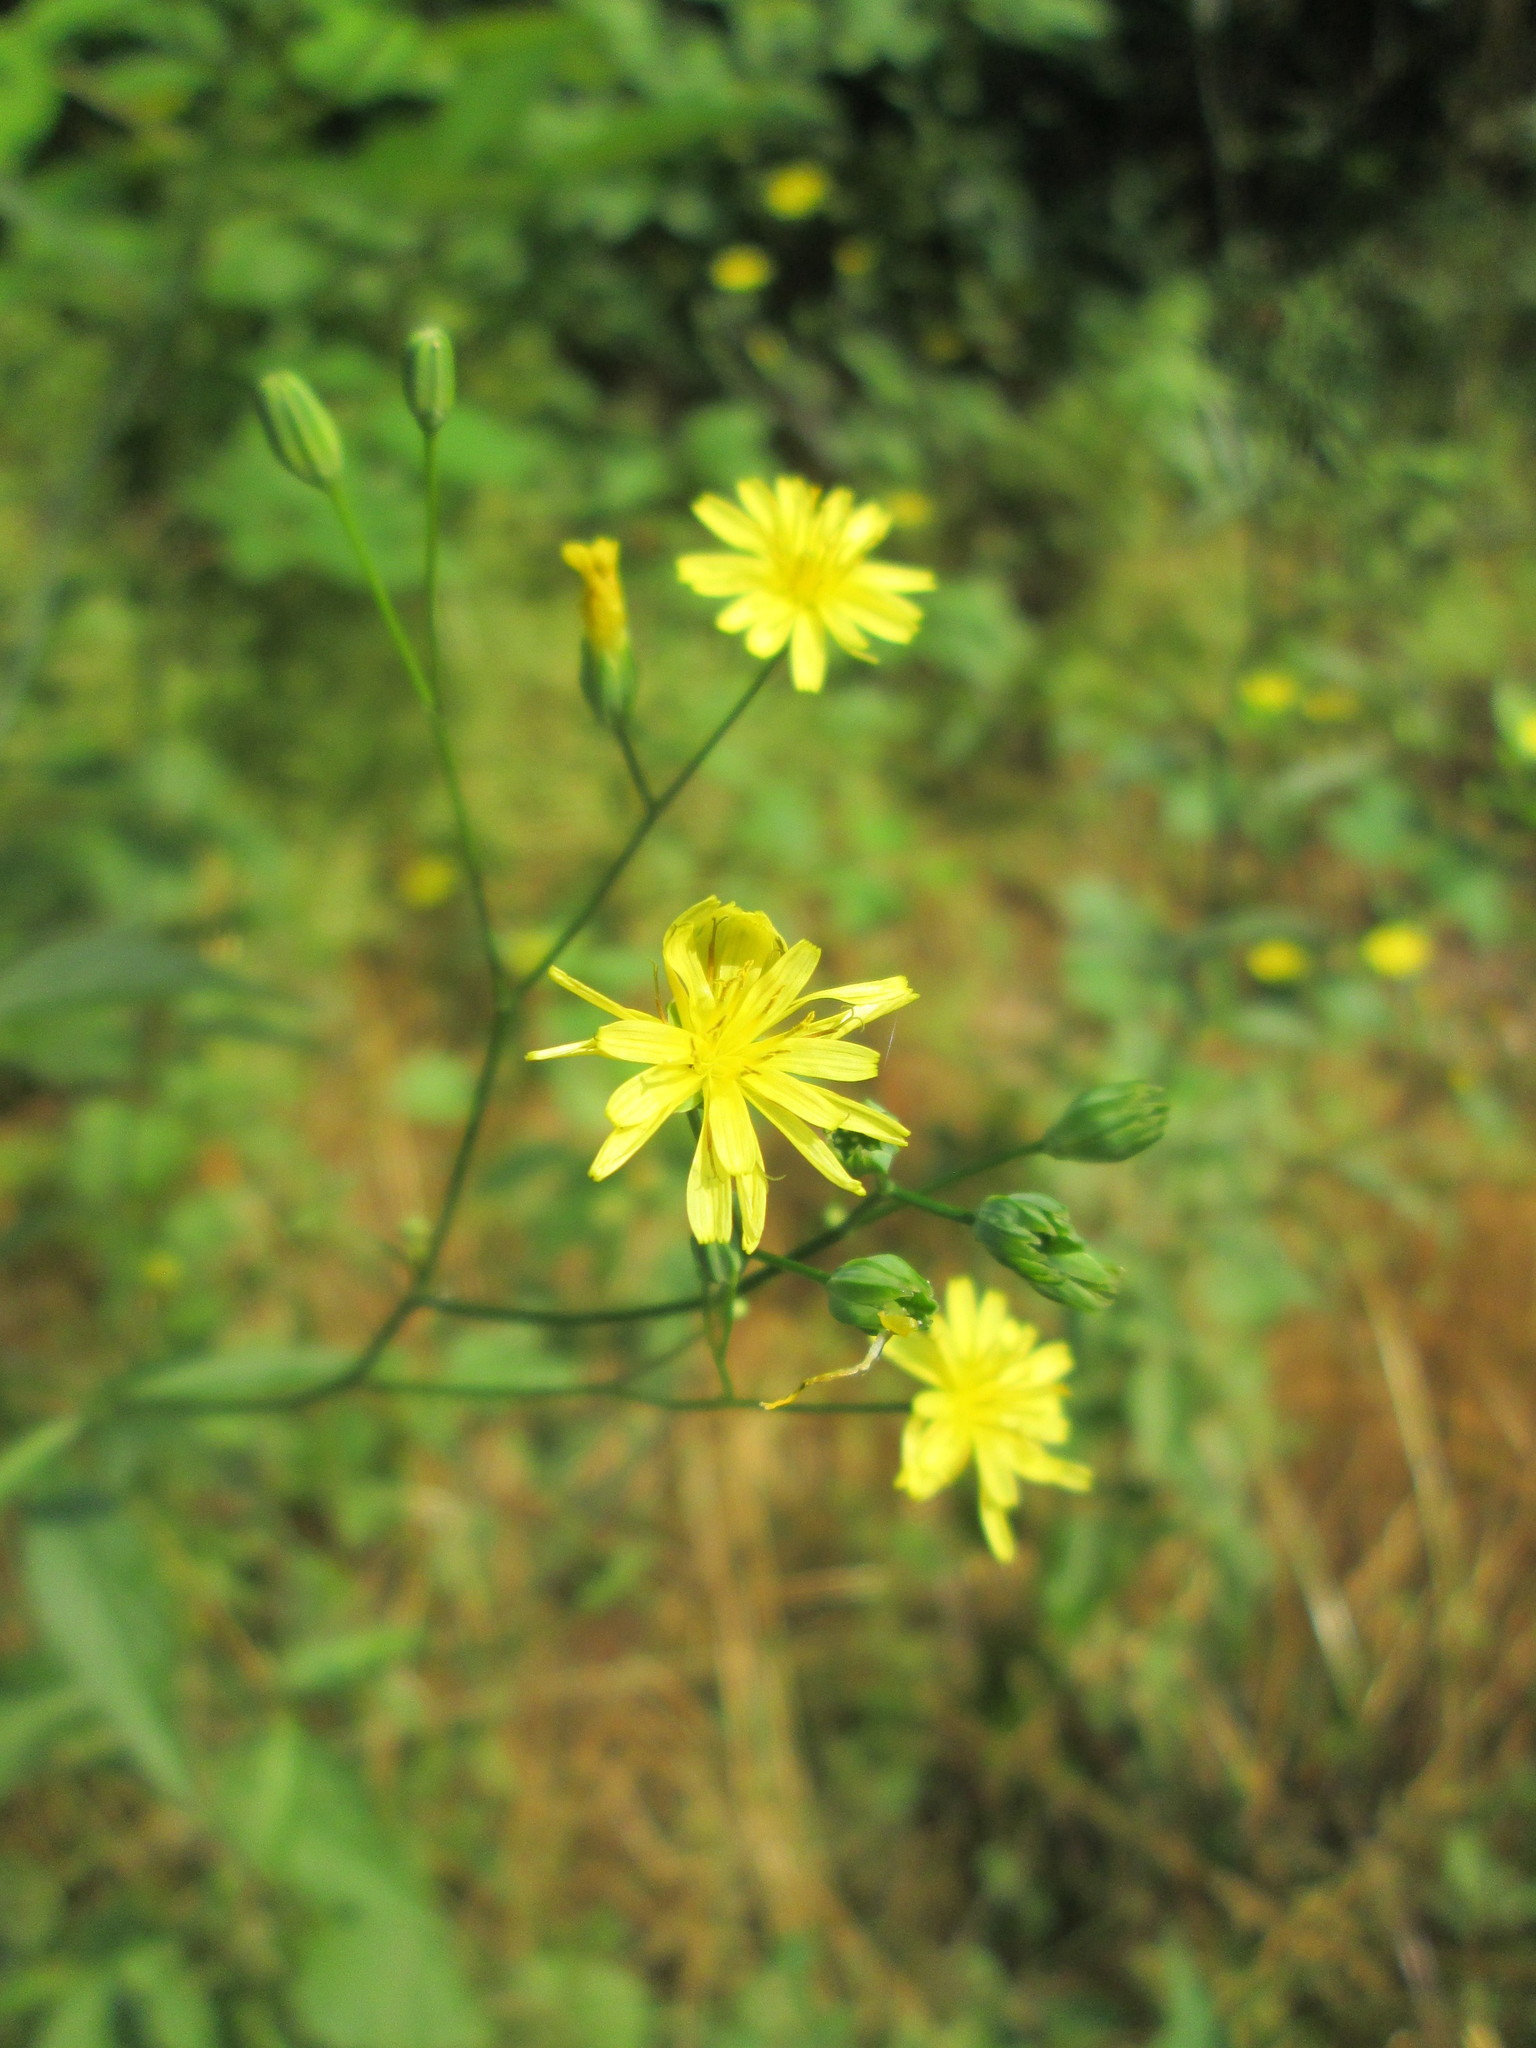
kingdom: Plantae
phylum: Tracheophyta
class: Magnoliopsida
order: Asterales
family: Asteraceae
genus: Lapsana
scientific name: Lapsana communis
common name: Nipplewort
